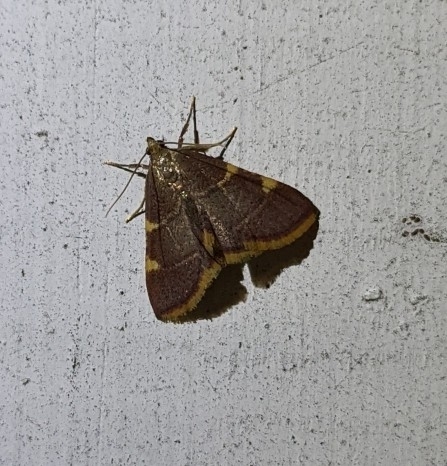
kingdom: Animalia
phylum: Arthropoda
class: Insecta
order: Lepidoptera
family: Pyralidae
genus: Hypsopygia
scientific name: Hypsopygia olinalis
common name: Yellow-fringed dolichomia moth
